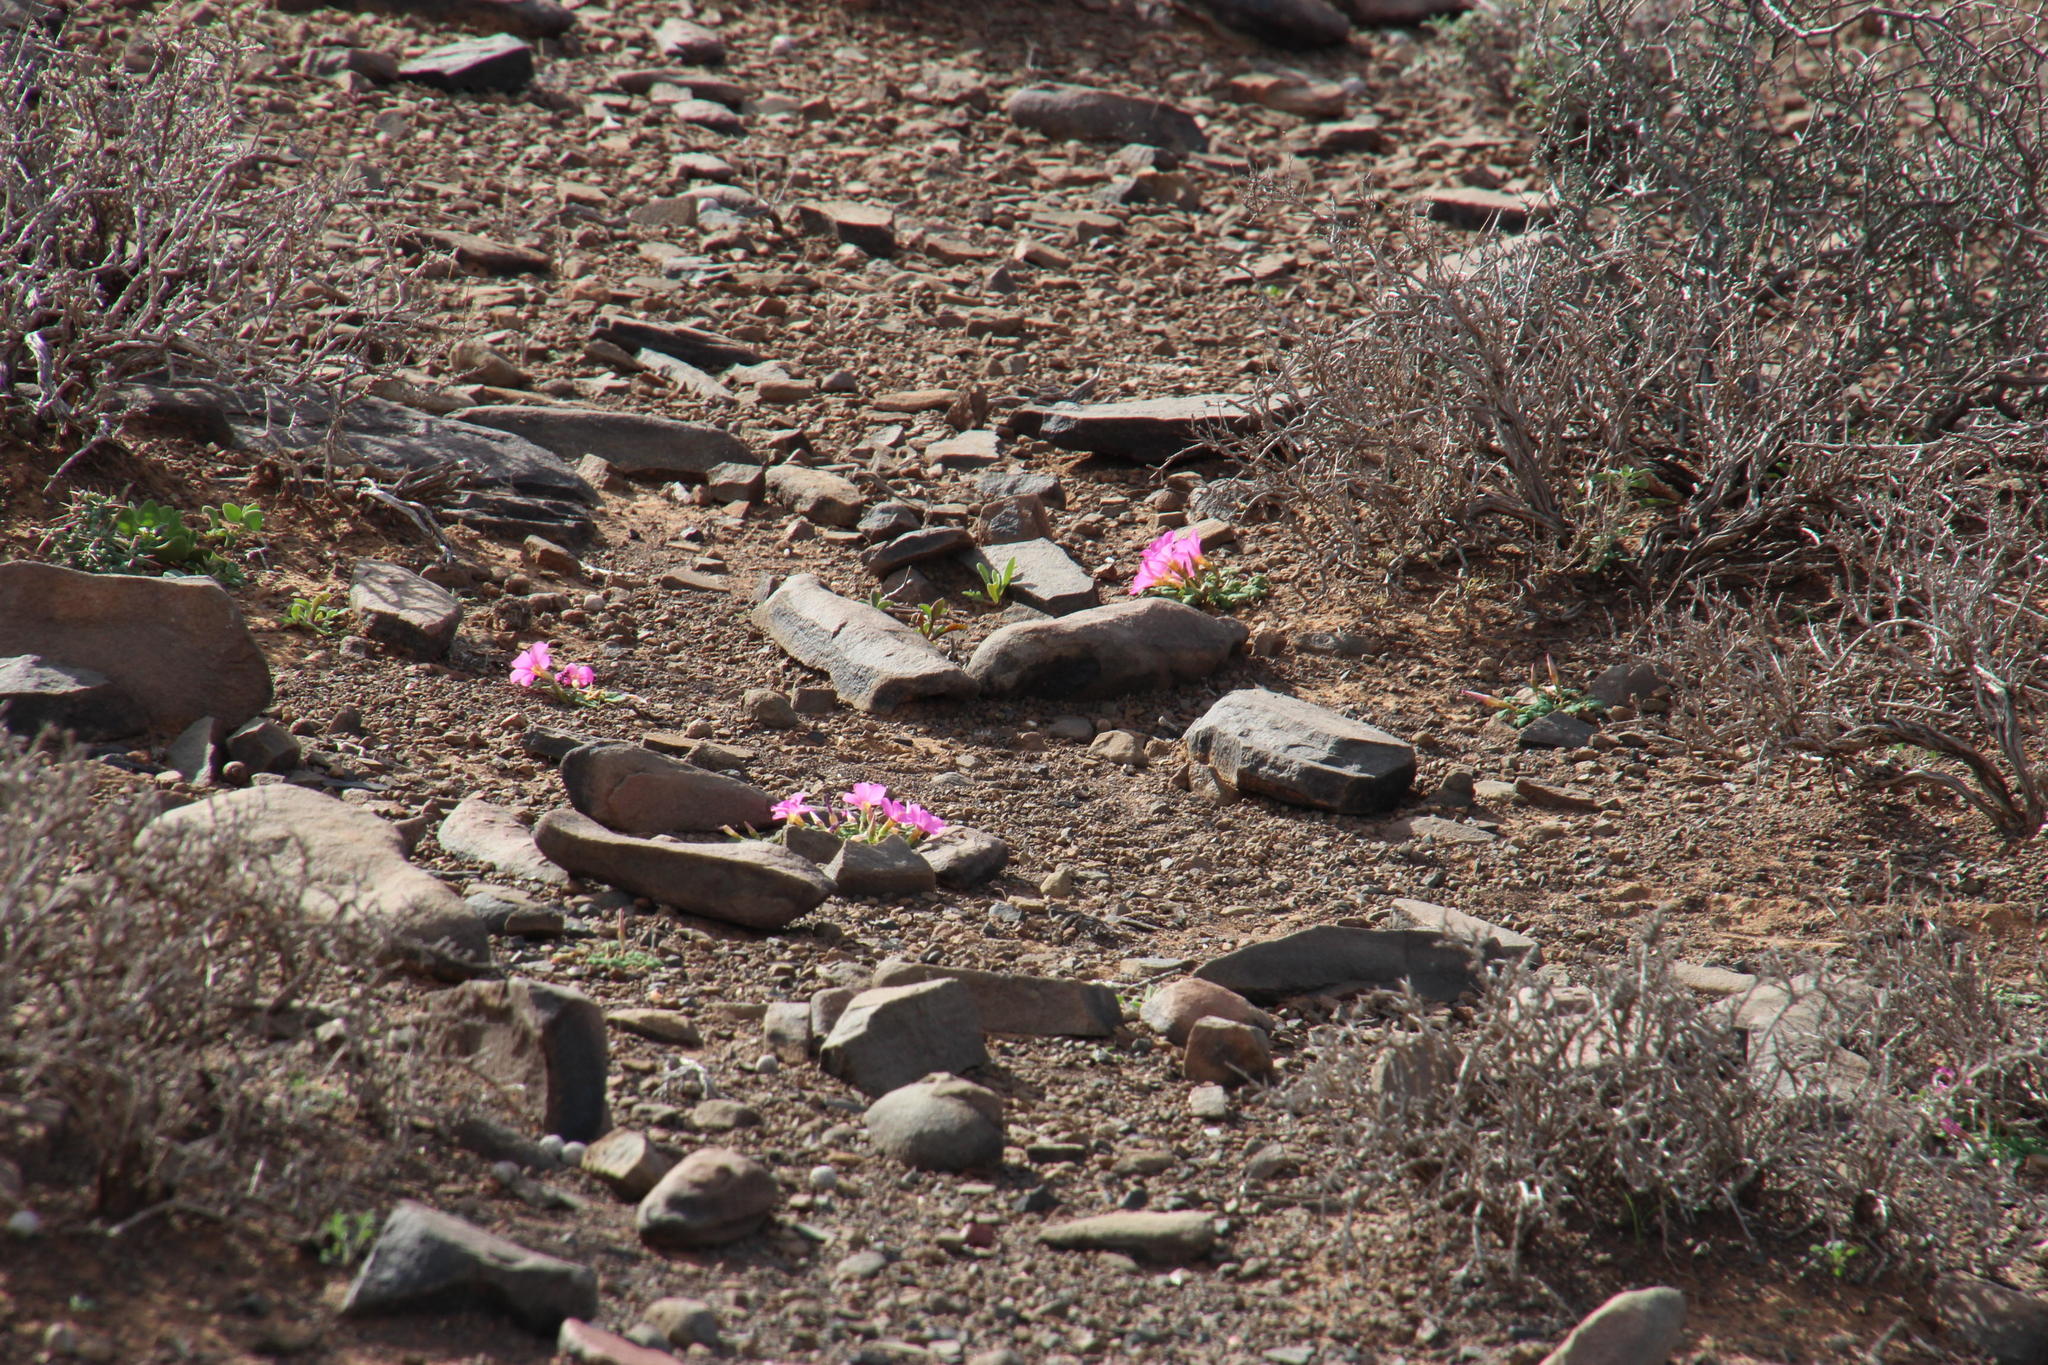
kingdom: Plantae
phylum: Tracheophyta
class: Magnoliopsida
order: Oxalidales
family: Oxalidaceae
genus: Oxalis
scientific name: Oxalis fergusoniae
